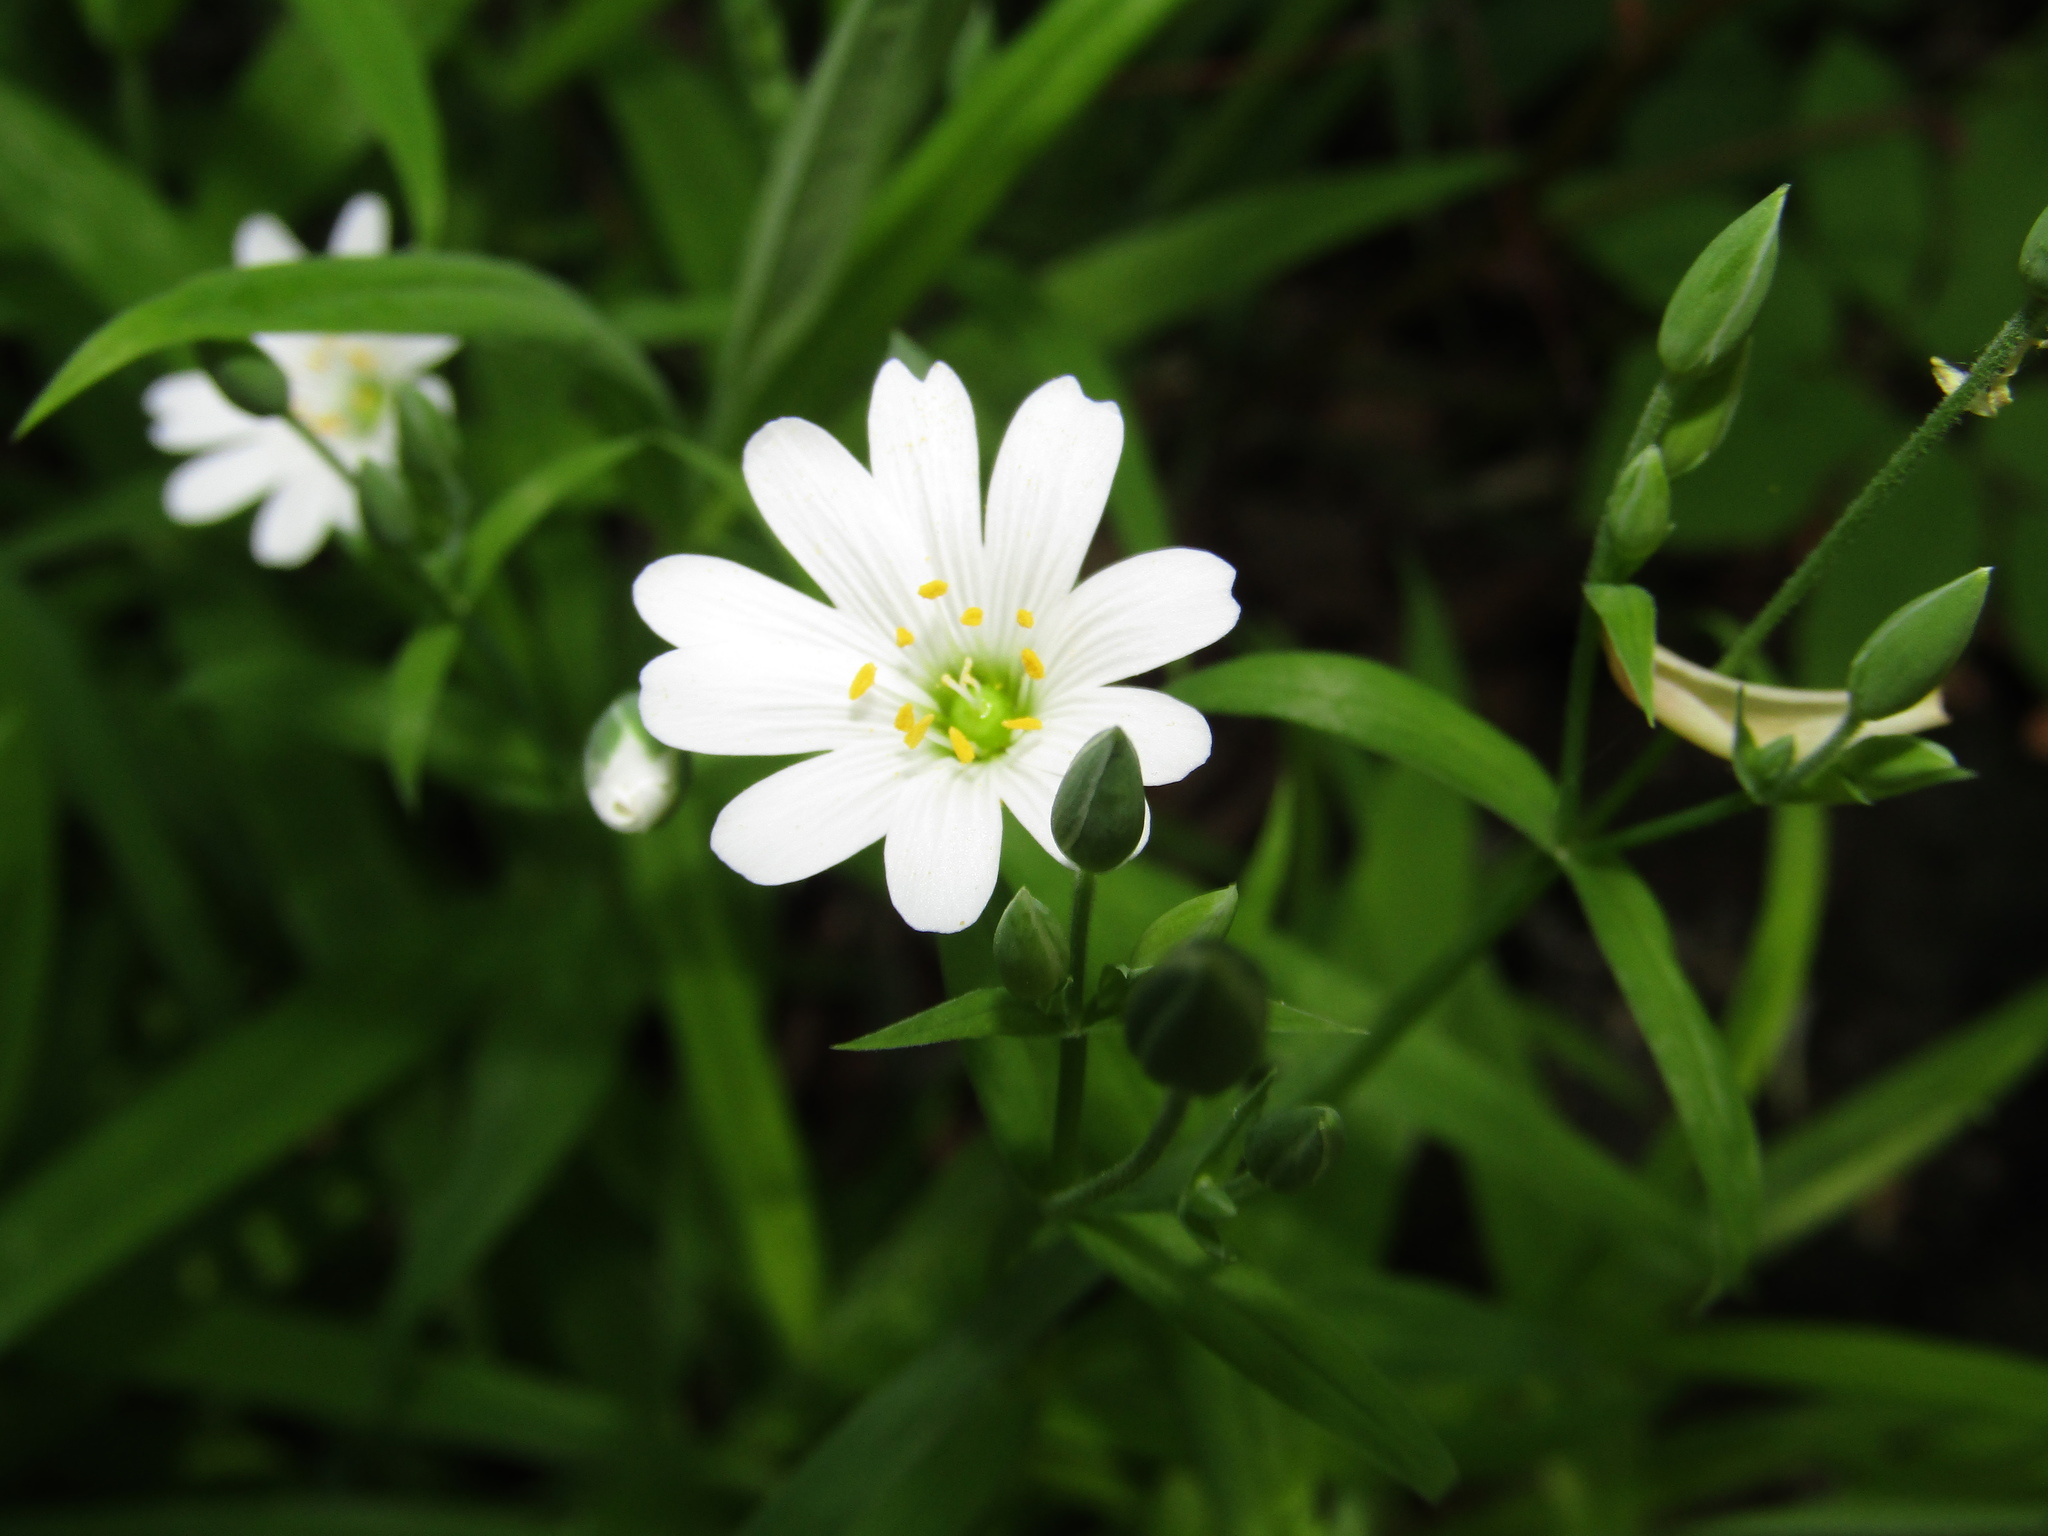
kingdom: Plantae
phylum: Tracheophyta
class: Magnoliopsida
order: Caryophyllales
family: Caryophyllaceae
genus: Rabelera
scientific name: Rabelera holostea
